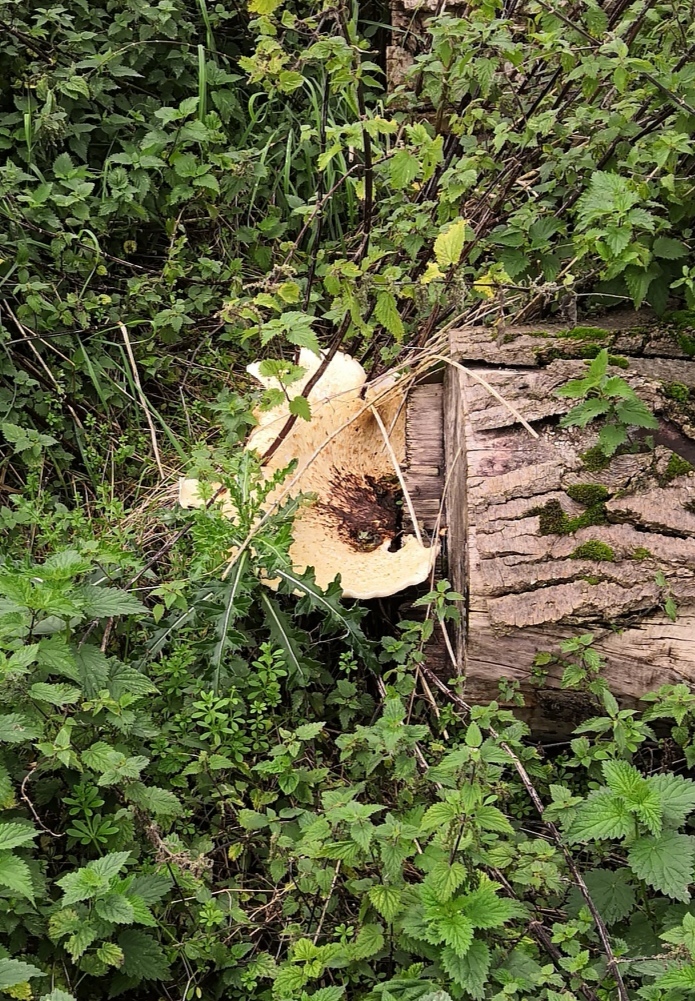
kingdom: Fungi
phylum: Basidiomycota
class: Agaricomycetes
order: Polyporales
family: Polyporaceae
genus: Cerioporus
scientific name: Cerioporus squamosus
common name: Dryad's saddle
